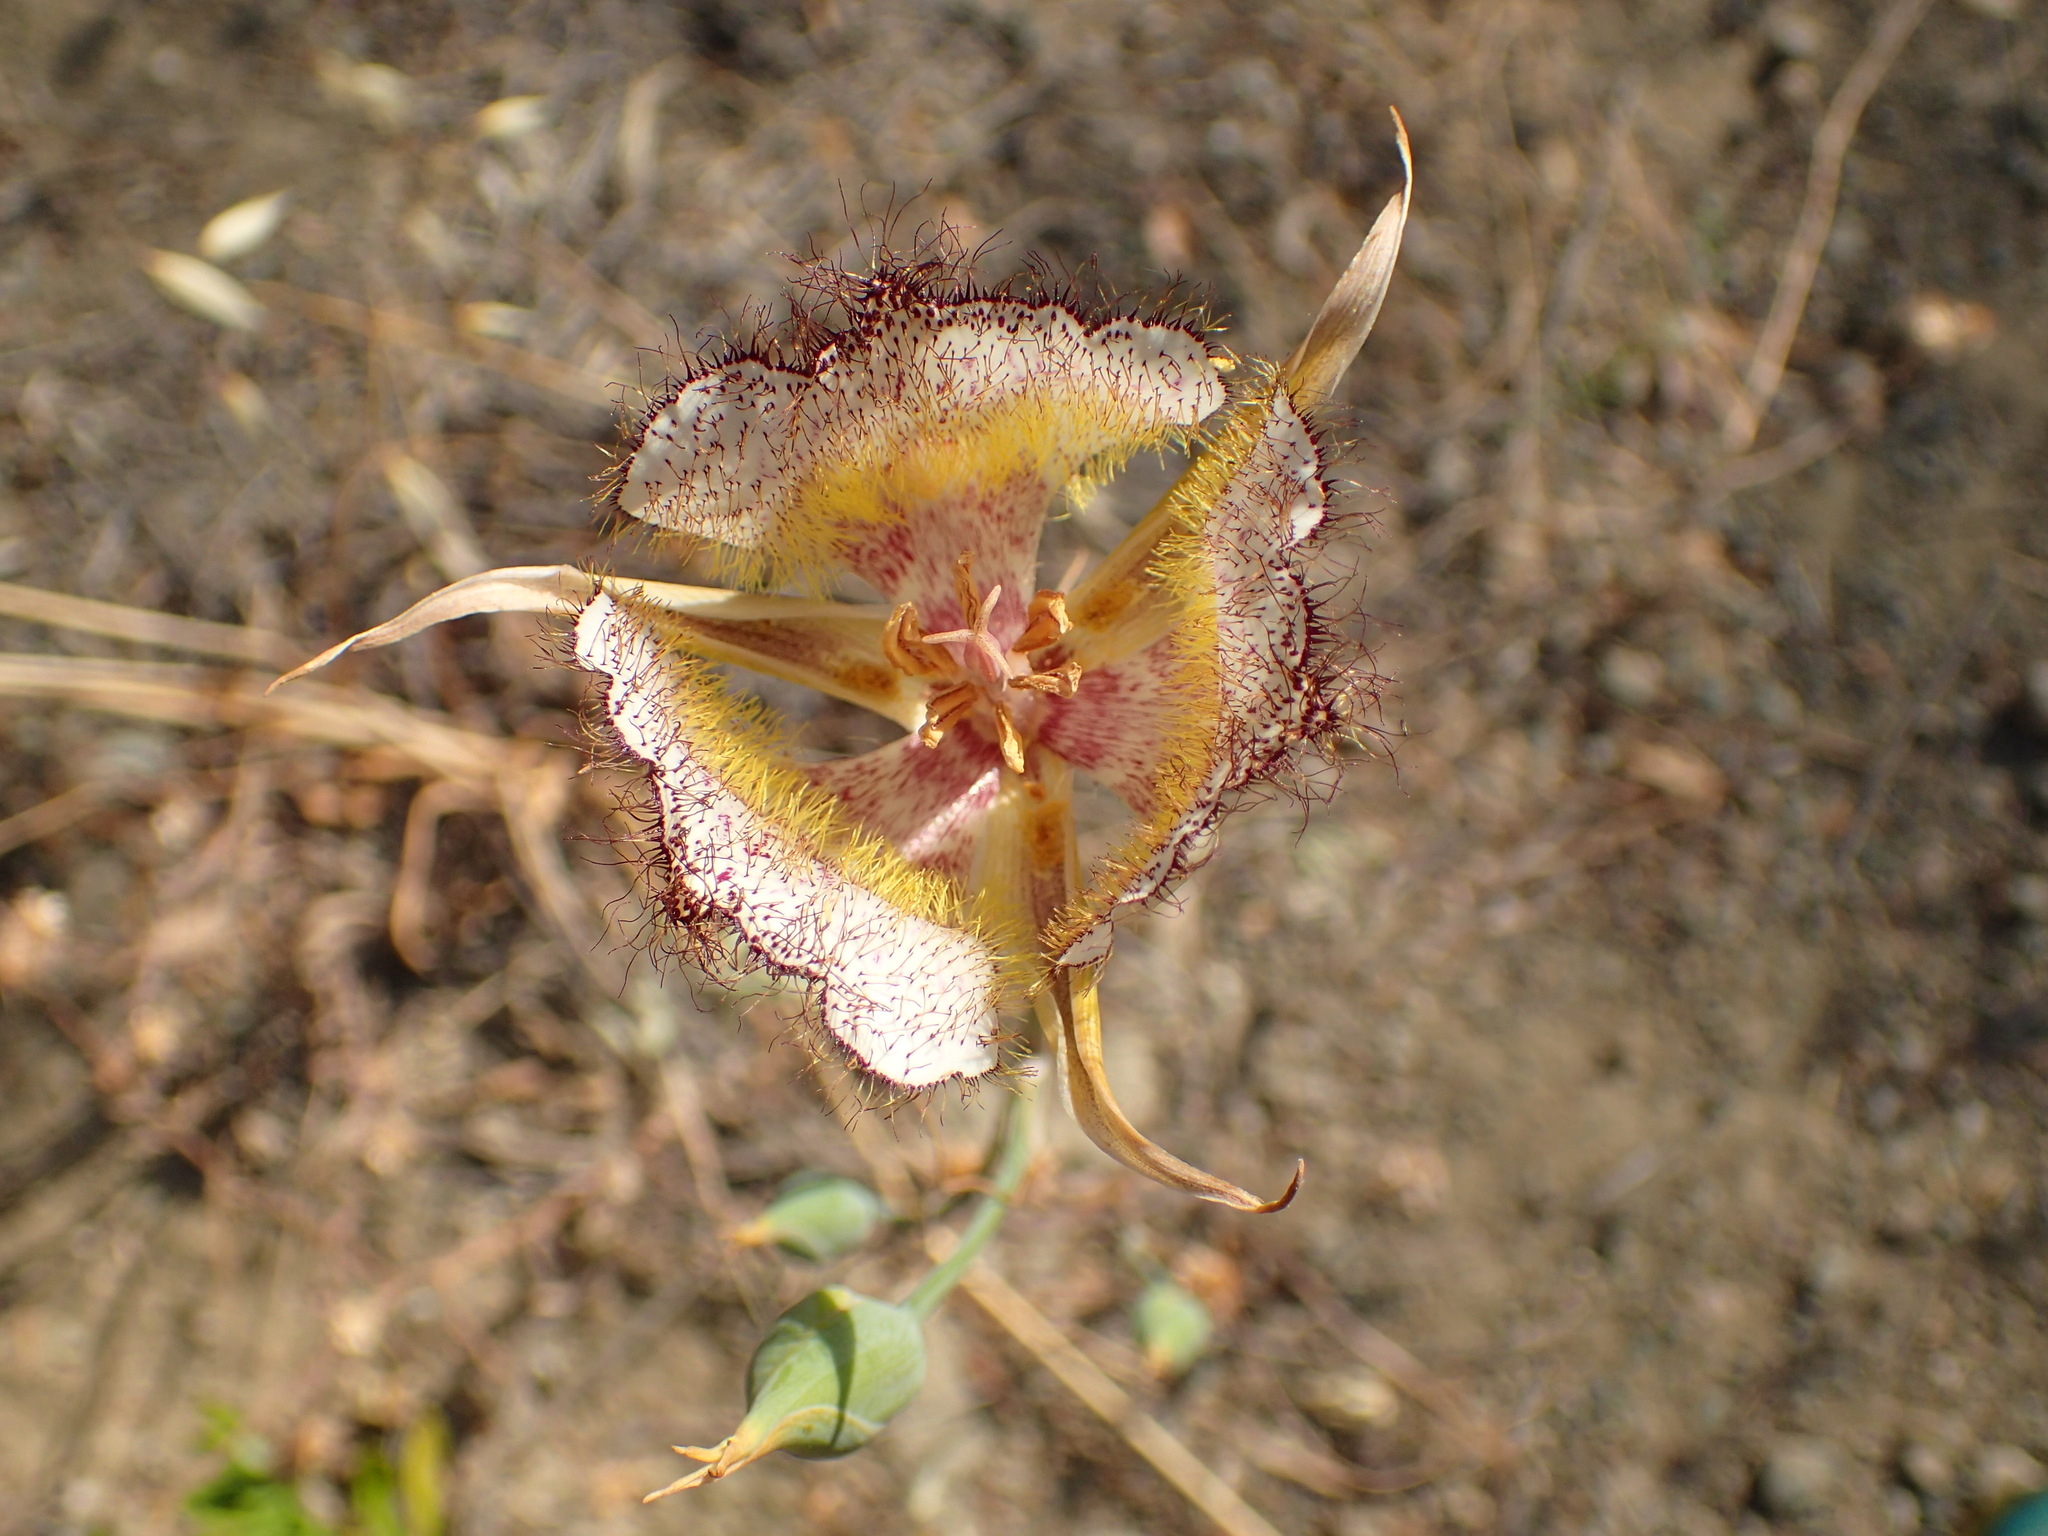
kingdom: Plantae
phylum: Tracheophyta
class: Liliopsida
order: Liliales
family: Liliaceae
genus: Calochortus
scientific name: Calochortus fimbriatus
